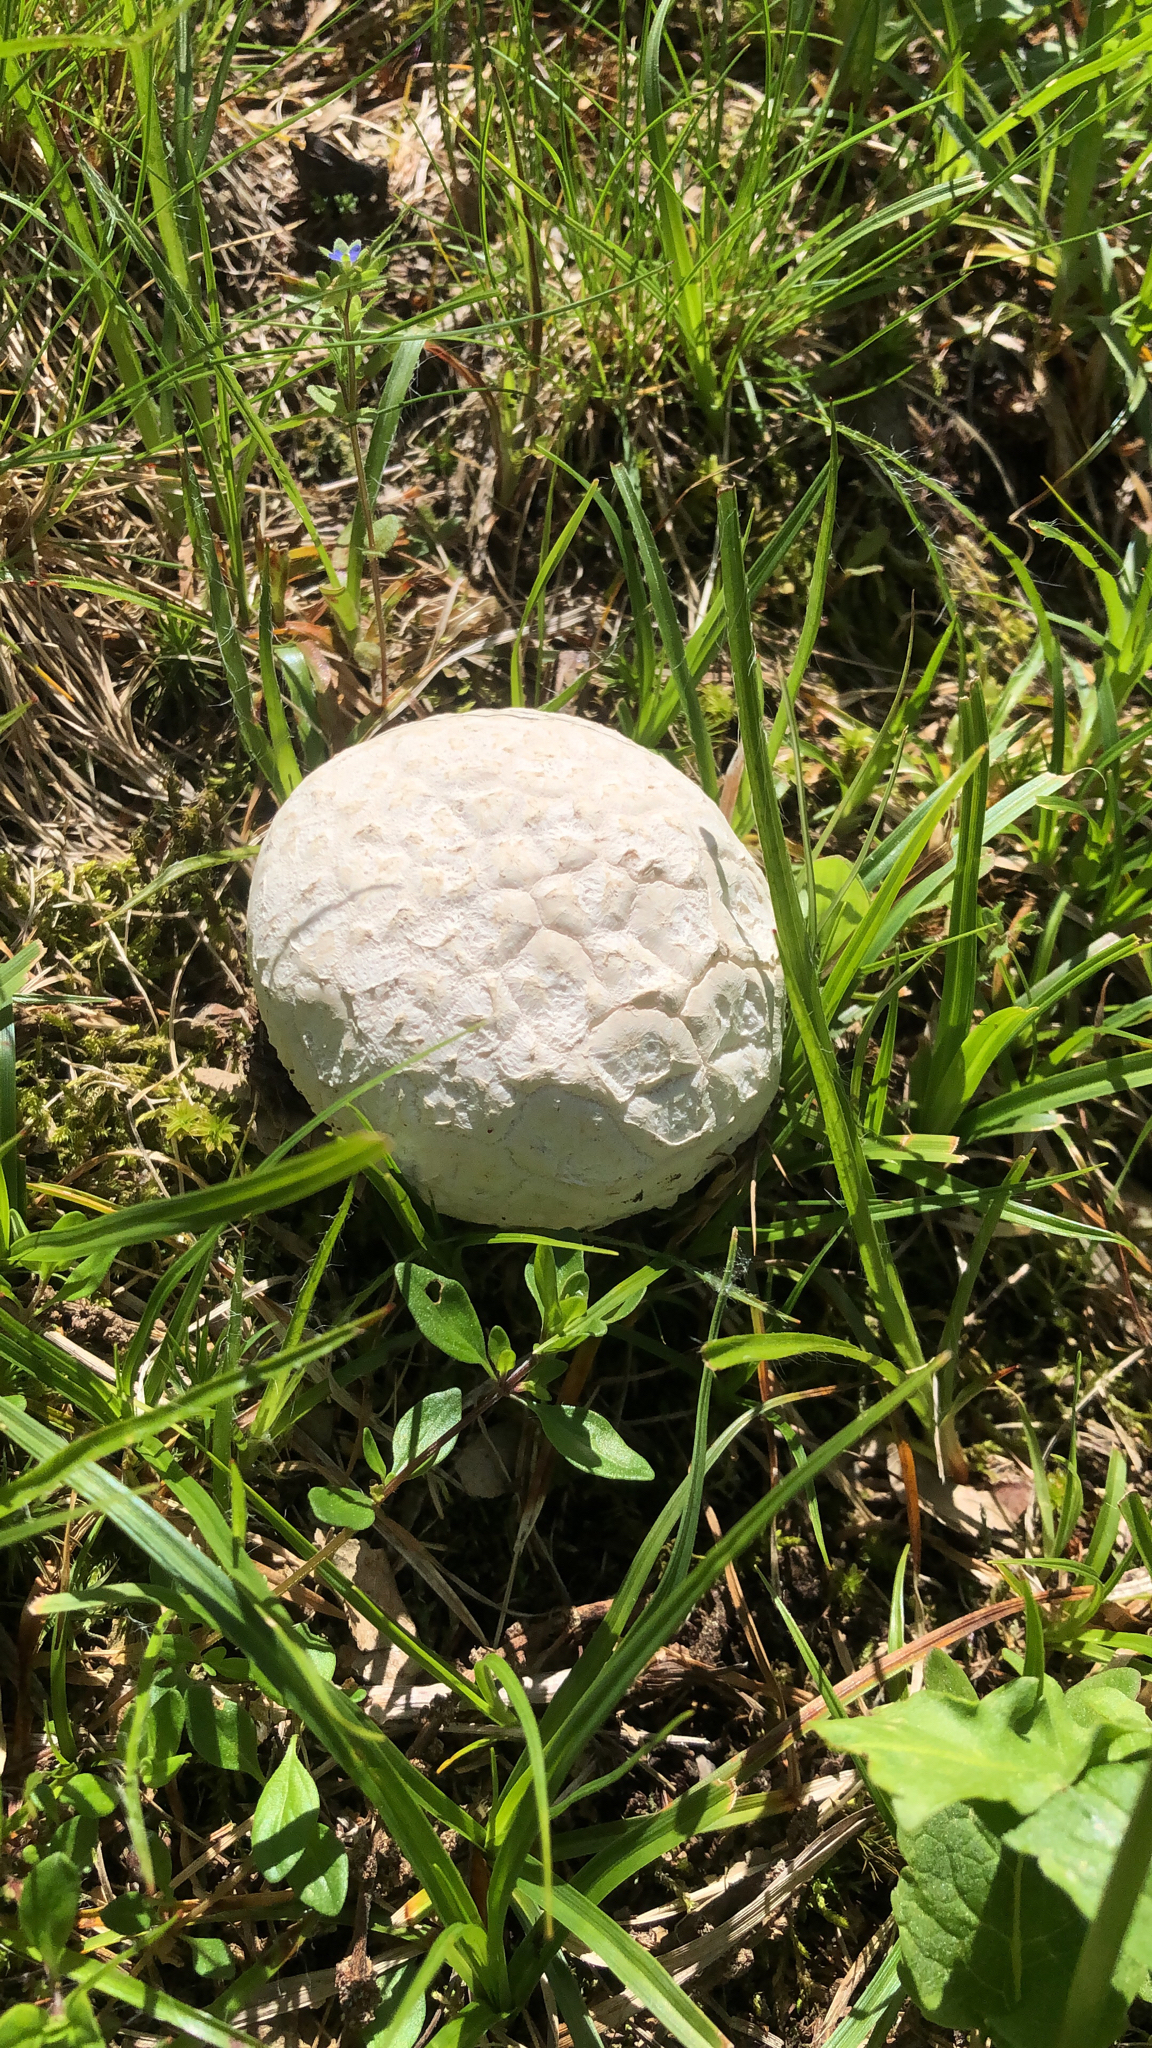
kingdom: Fungi
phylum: Basidiomycota
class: Agaricomycetes
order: Agaricales
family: Lycoperdaceae
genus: Bovistella
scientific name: Bovistella utriformis
